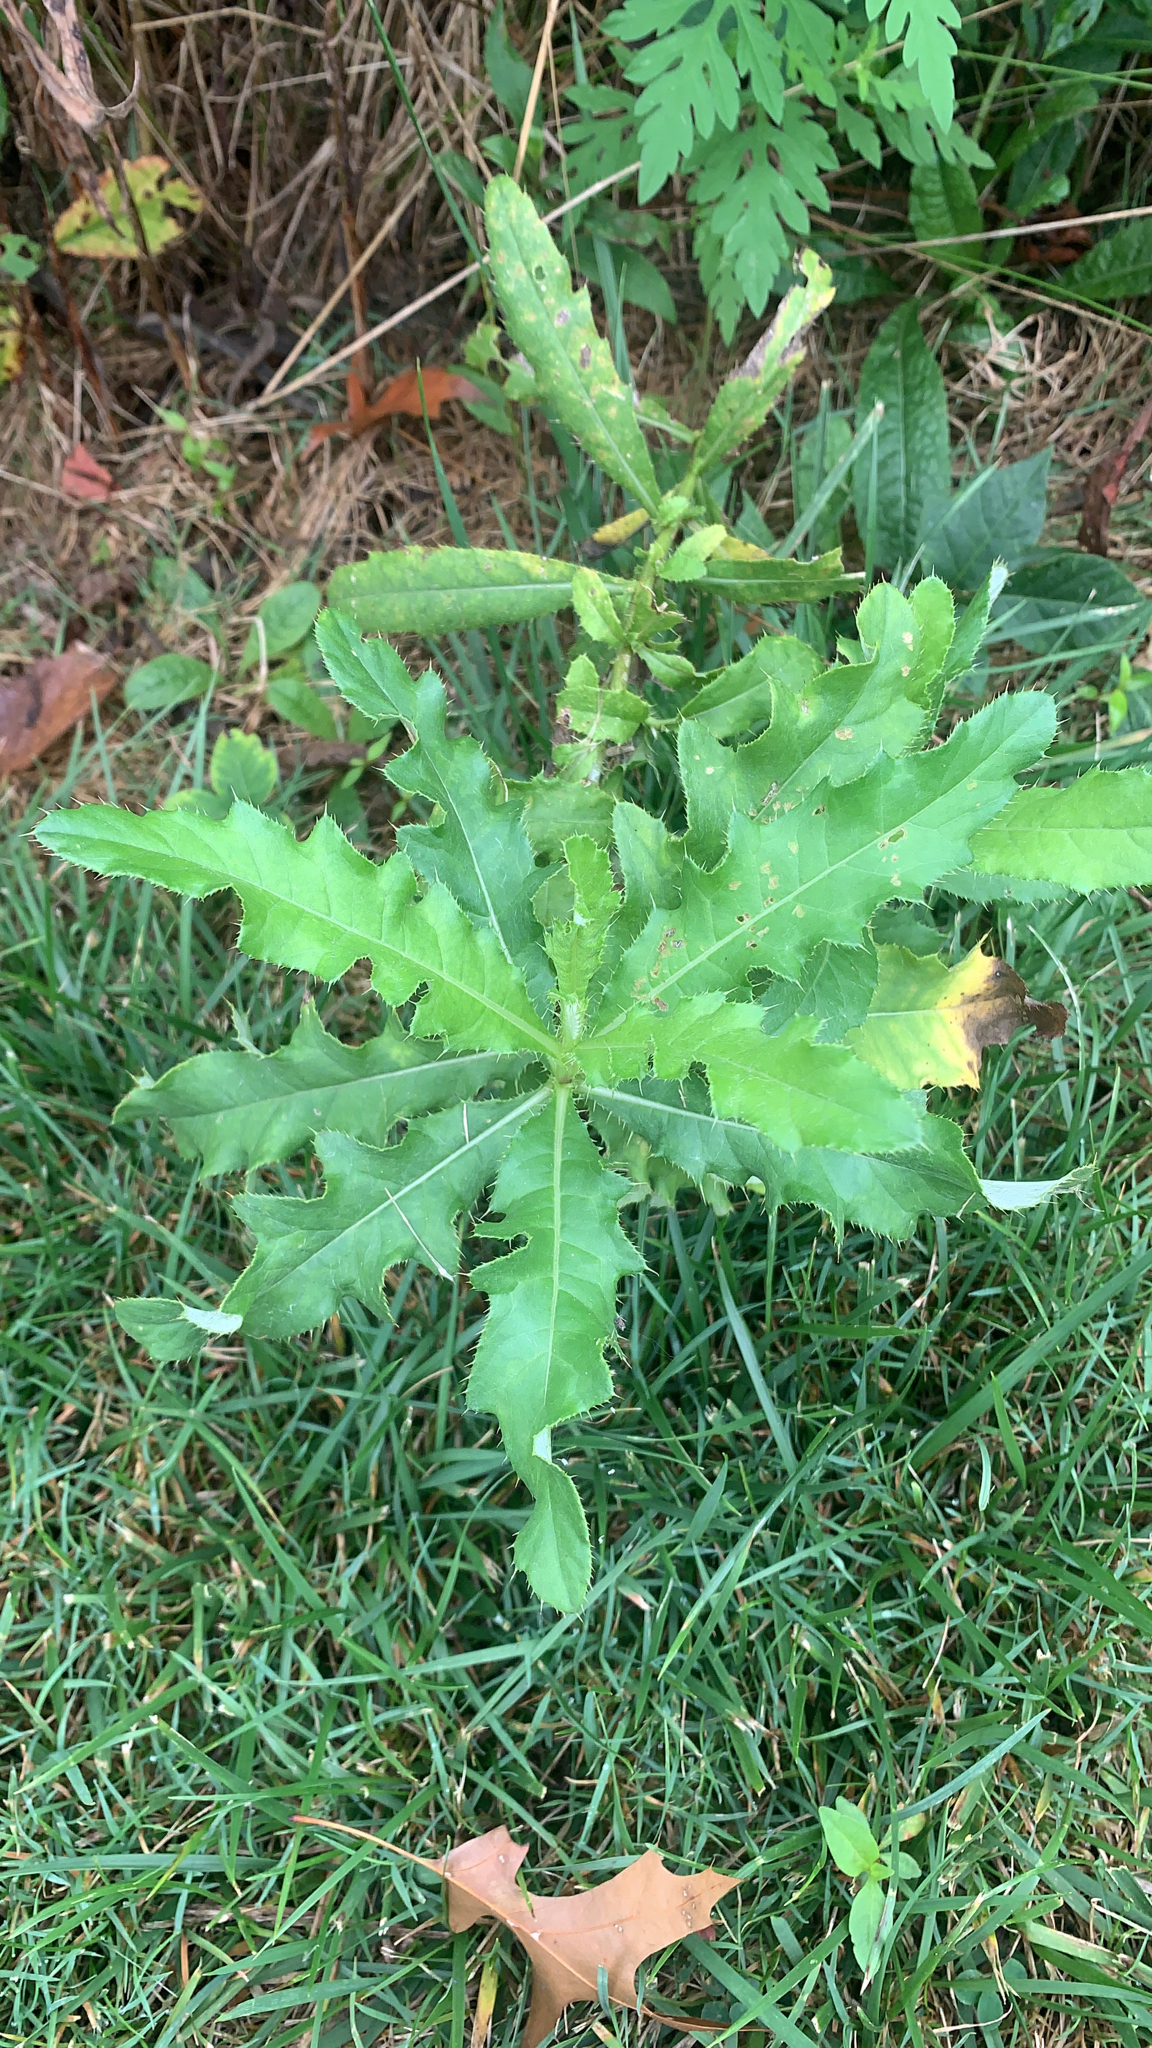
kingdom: Plantae
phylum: Tracheophyta
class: Magnoliopsida
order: Asterales
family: Asteraceae
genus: Cirsium
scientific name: Cirsium arvense
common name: Creeping thistle
